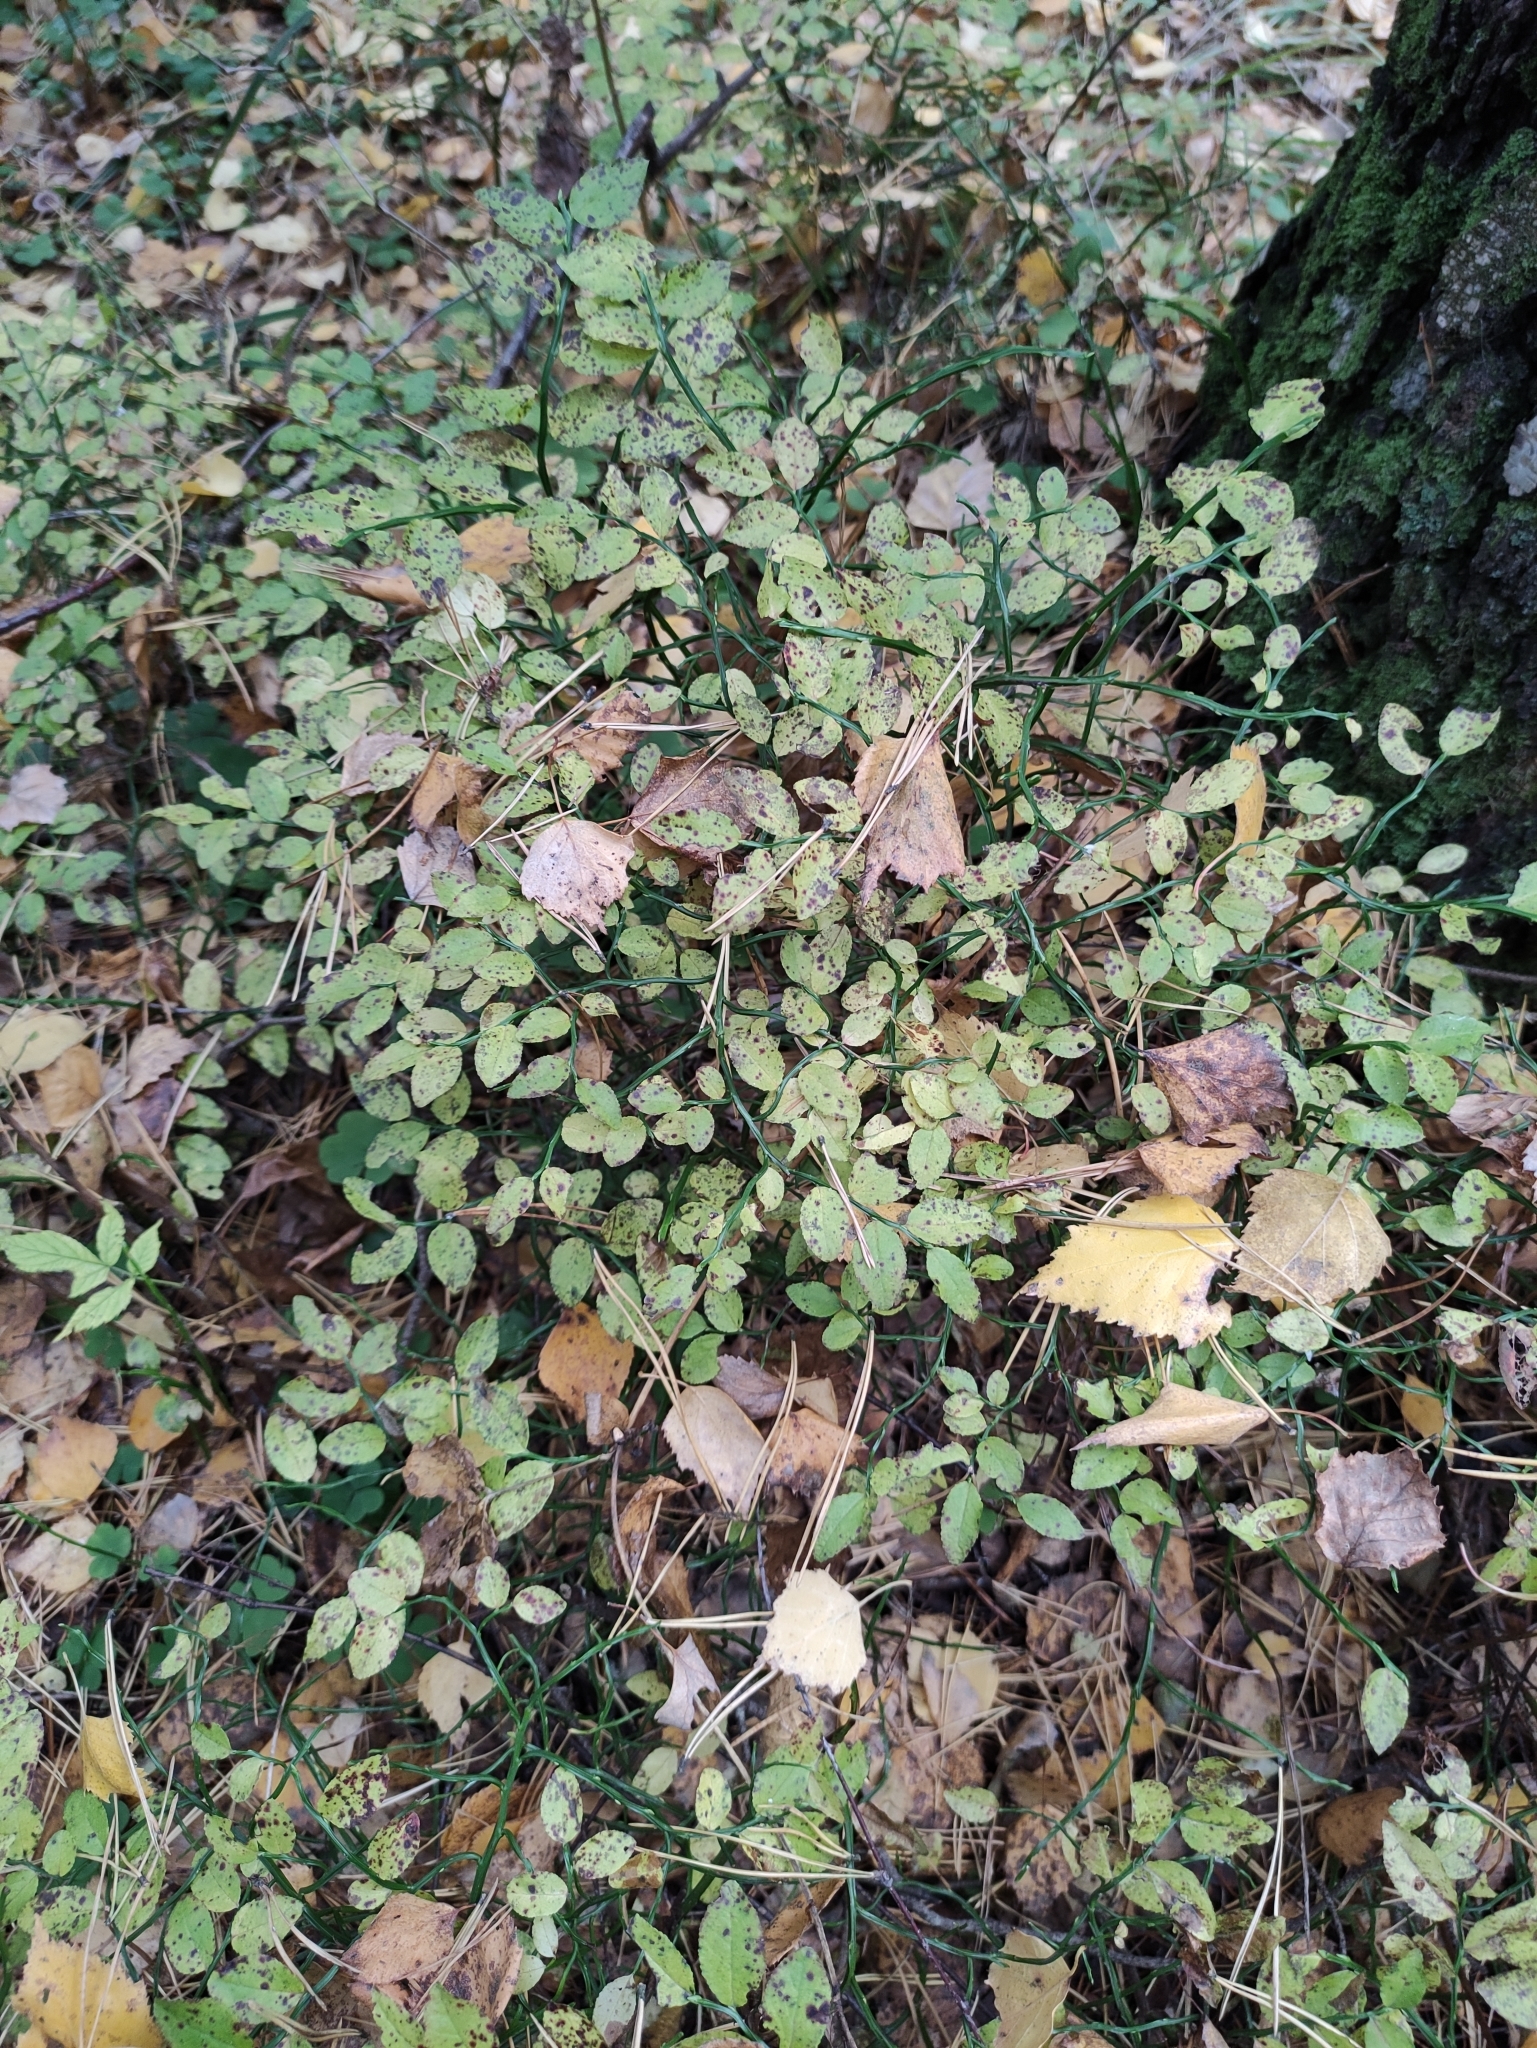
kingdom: Plantae
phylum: Tracheophyta
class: Magnoliopsida
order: Ericales
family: Ericaceae
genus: Vaccinium
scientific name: Vaccinium myrtillus
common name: Bilberry
